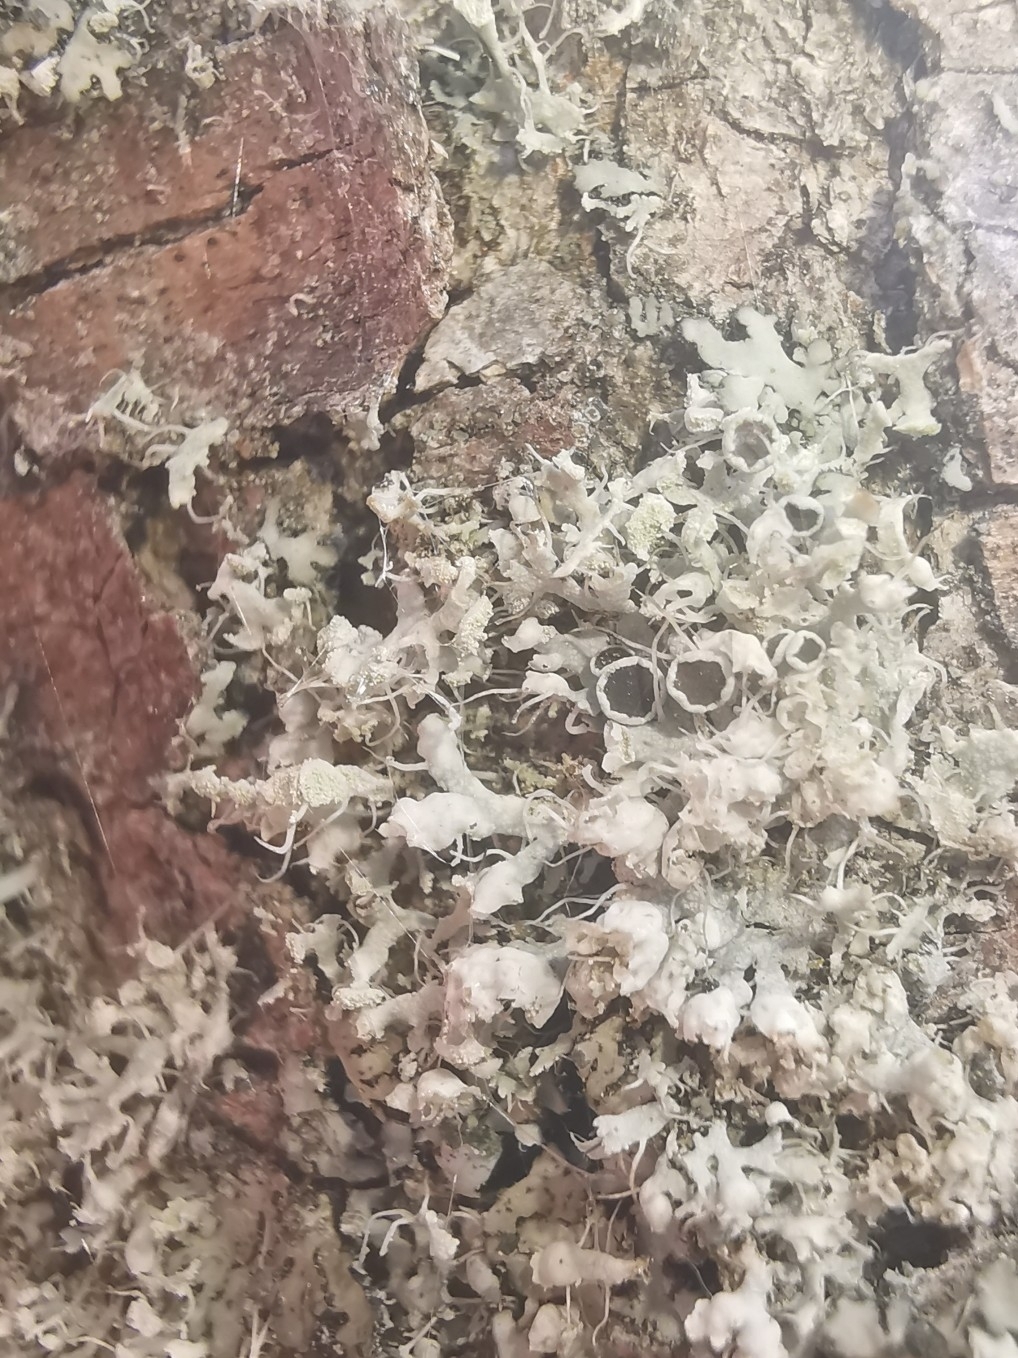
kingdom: Fungi
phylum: Ascomycota
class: Lecanoromycetes
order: Caliciales
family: Physciaceae
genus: Physcia
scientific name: Physcia adscendens
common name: Hooded rosette lichen
